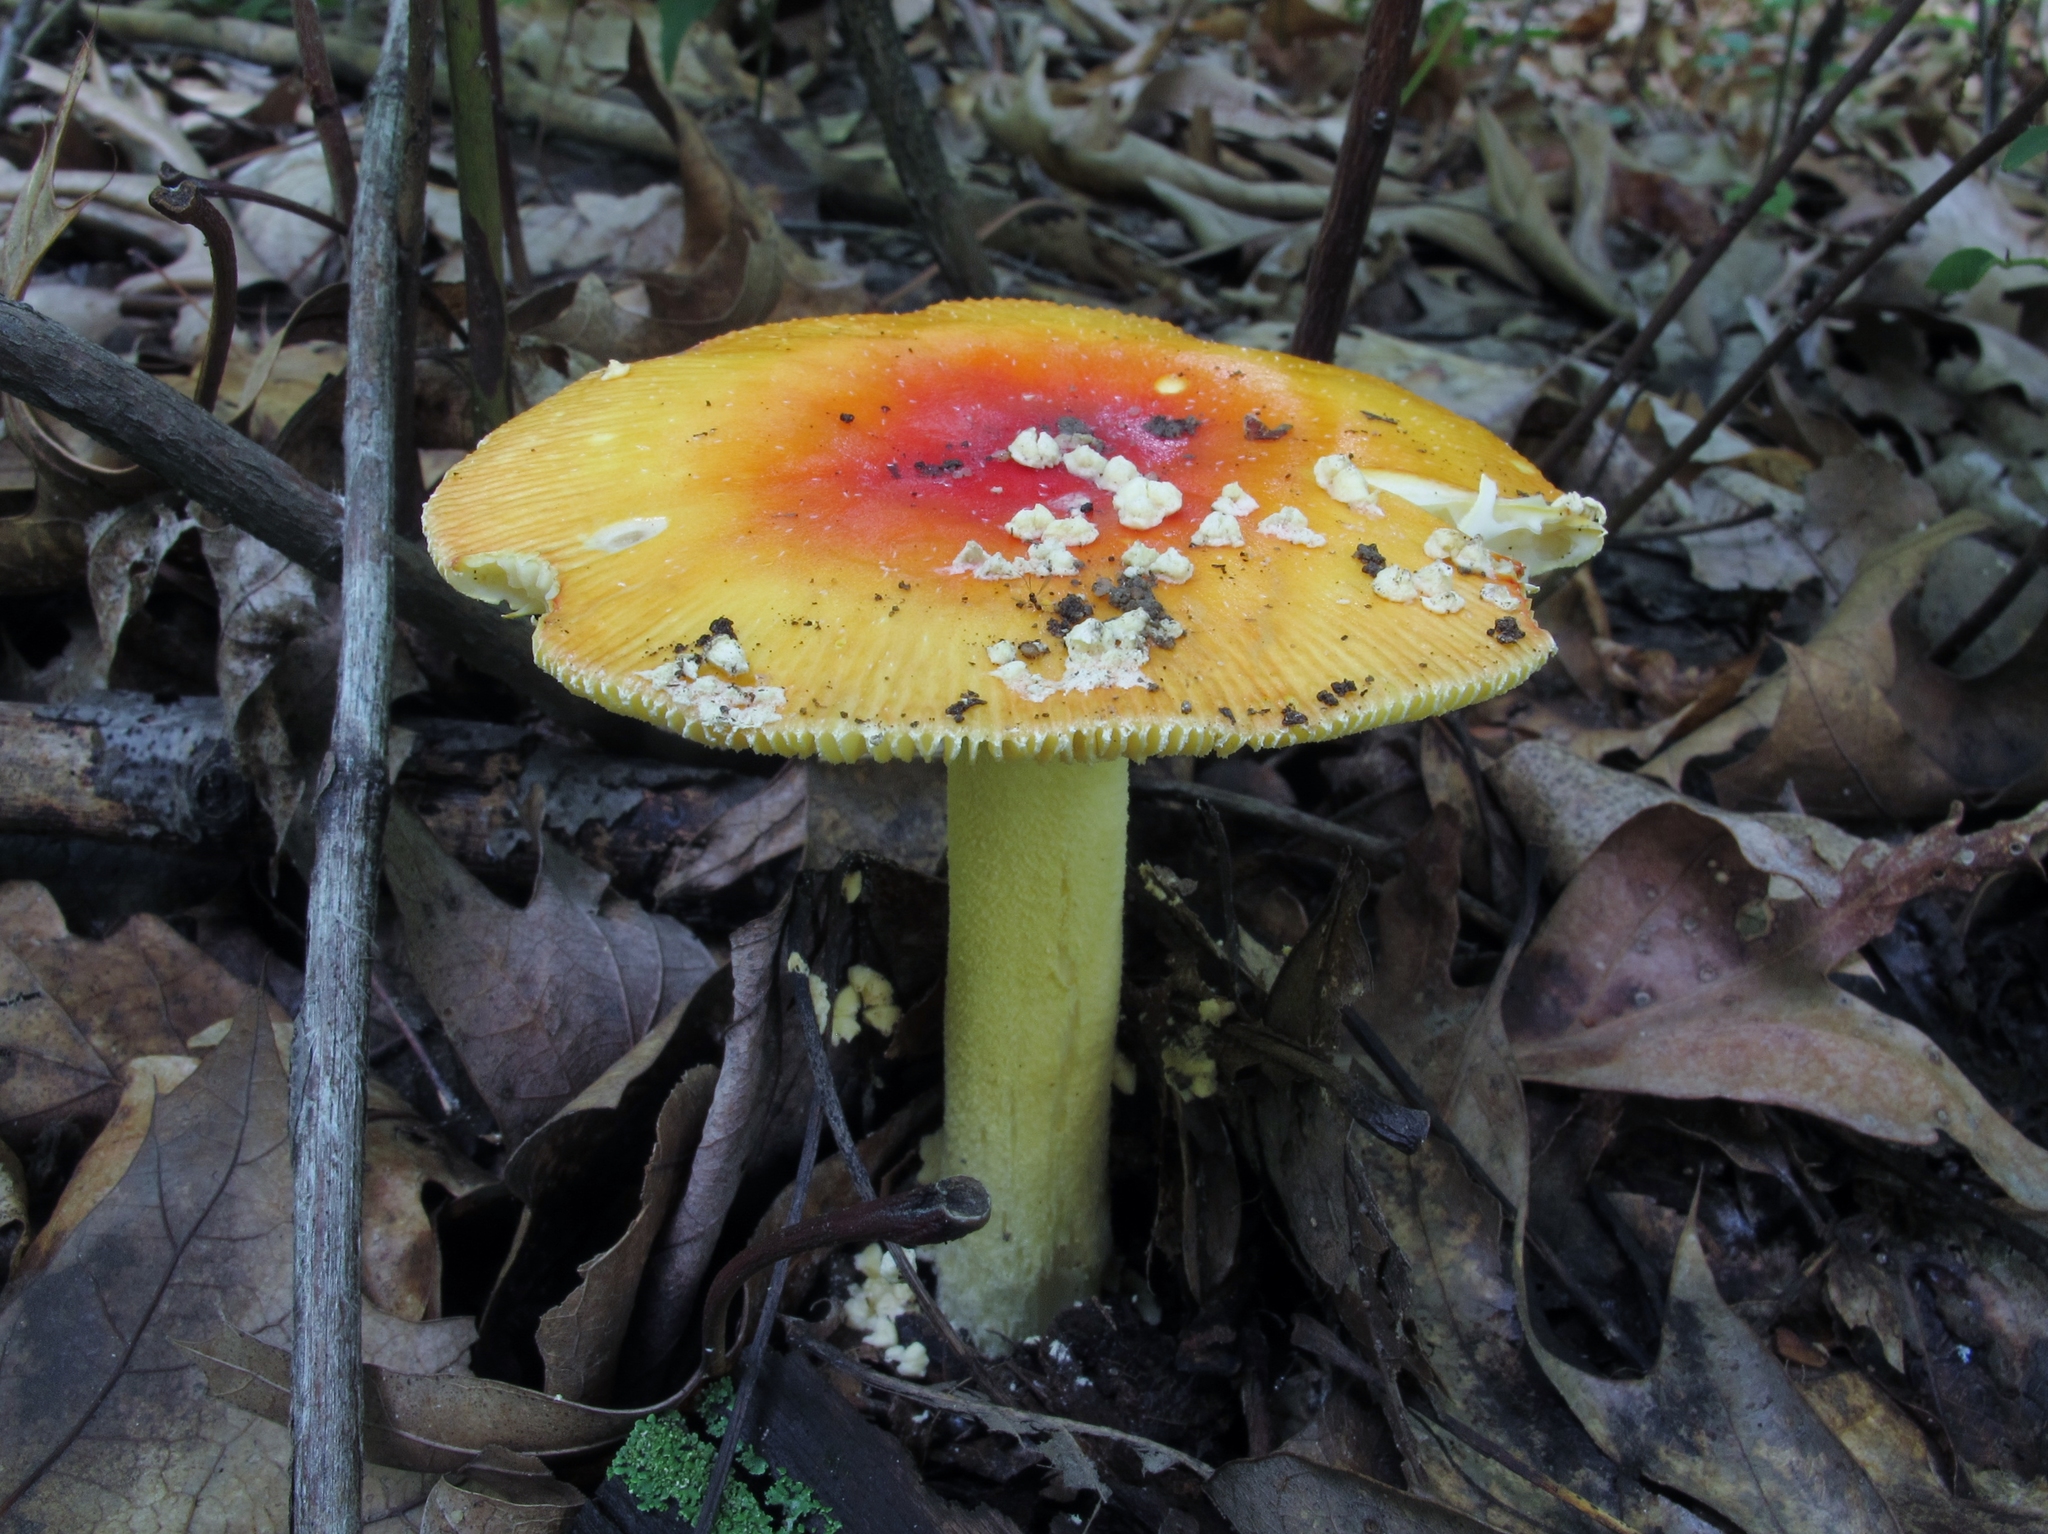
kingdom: Fungi
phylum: Basidiomycota
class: Agaricomycetes
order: Agaricales
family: Amanitaceae
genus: Amanita
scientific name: Amanita parcivolvata
